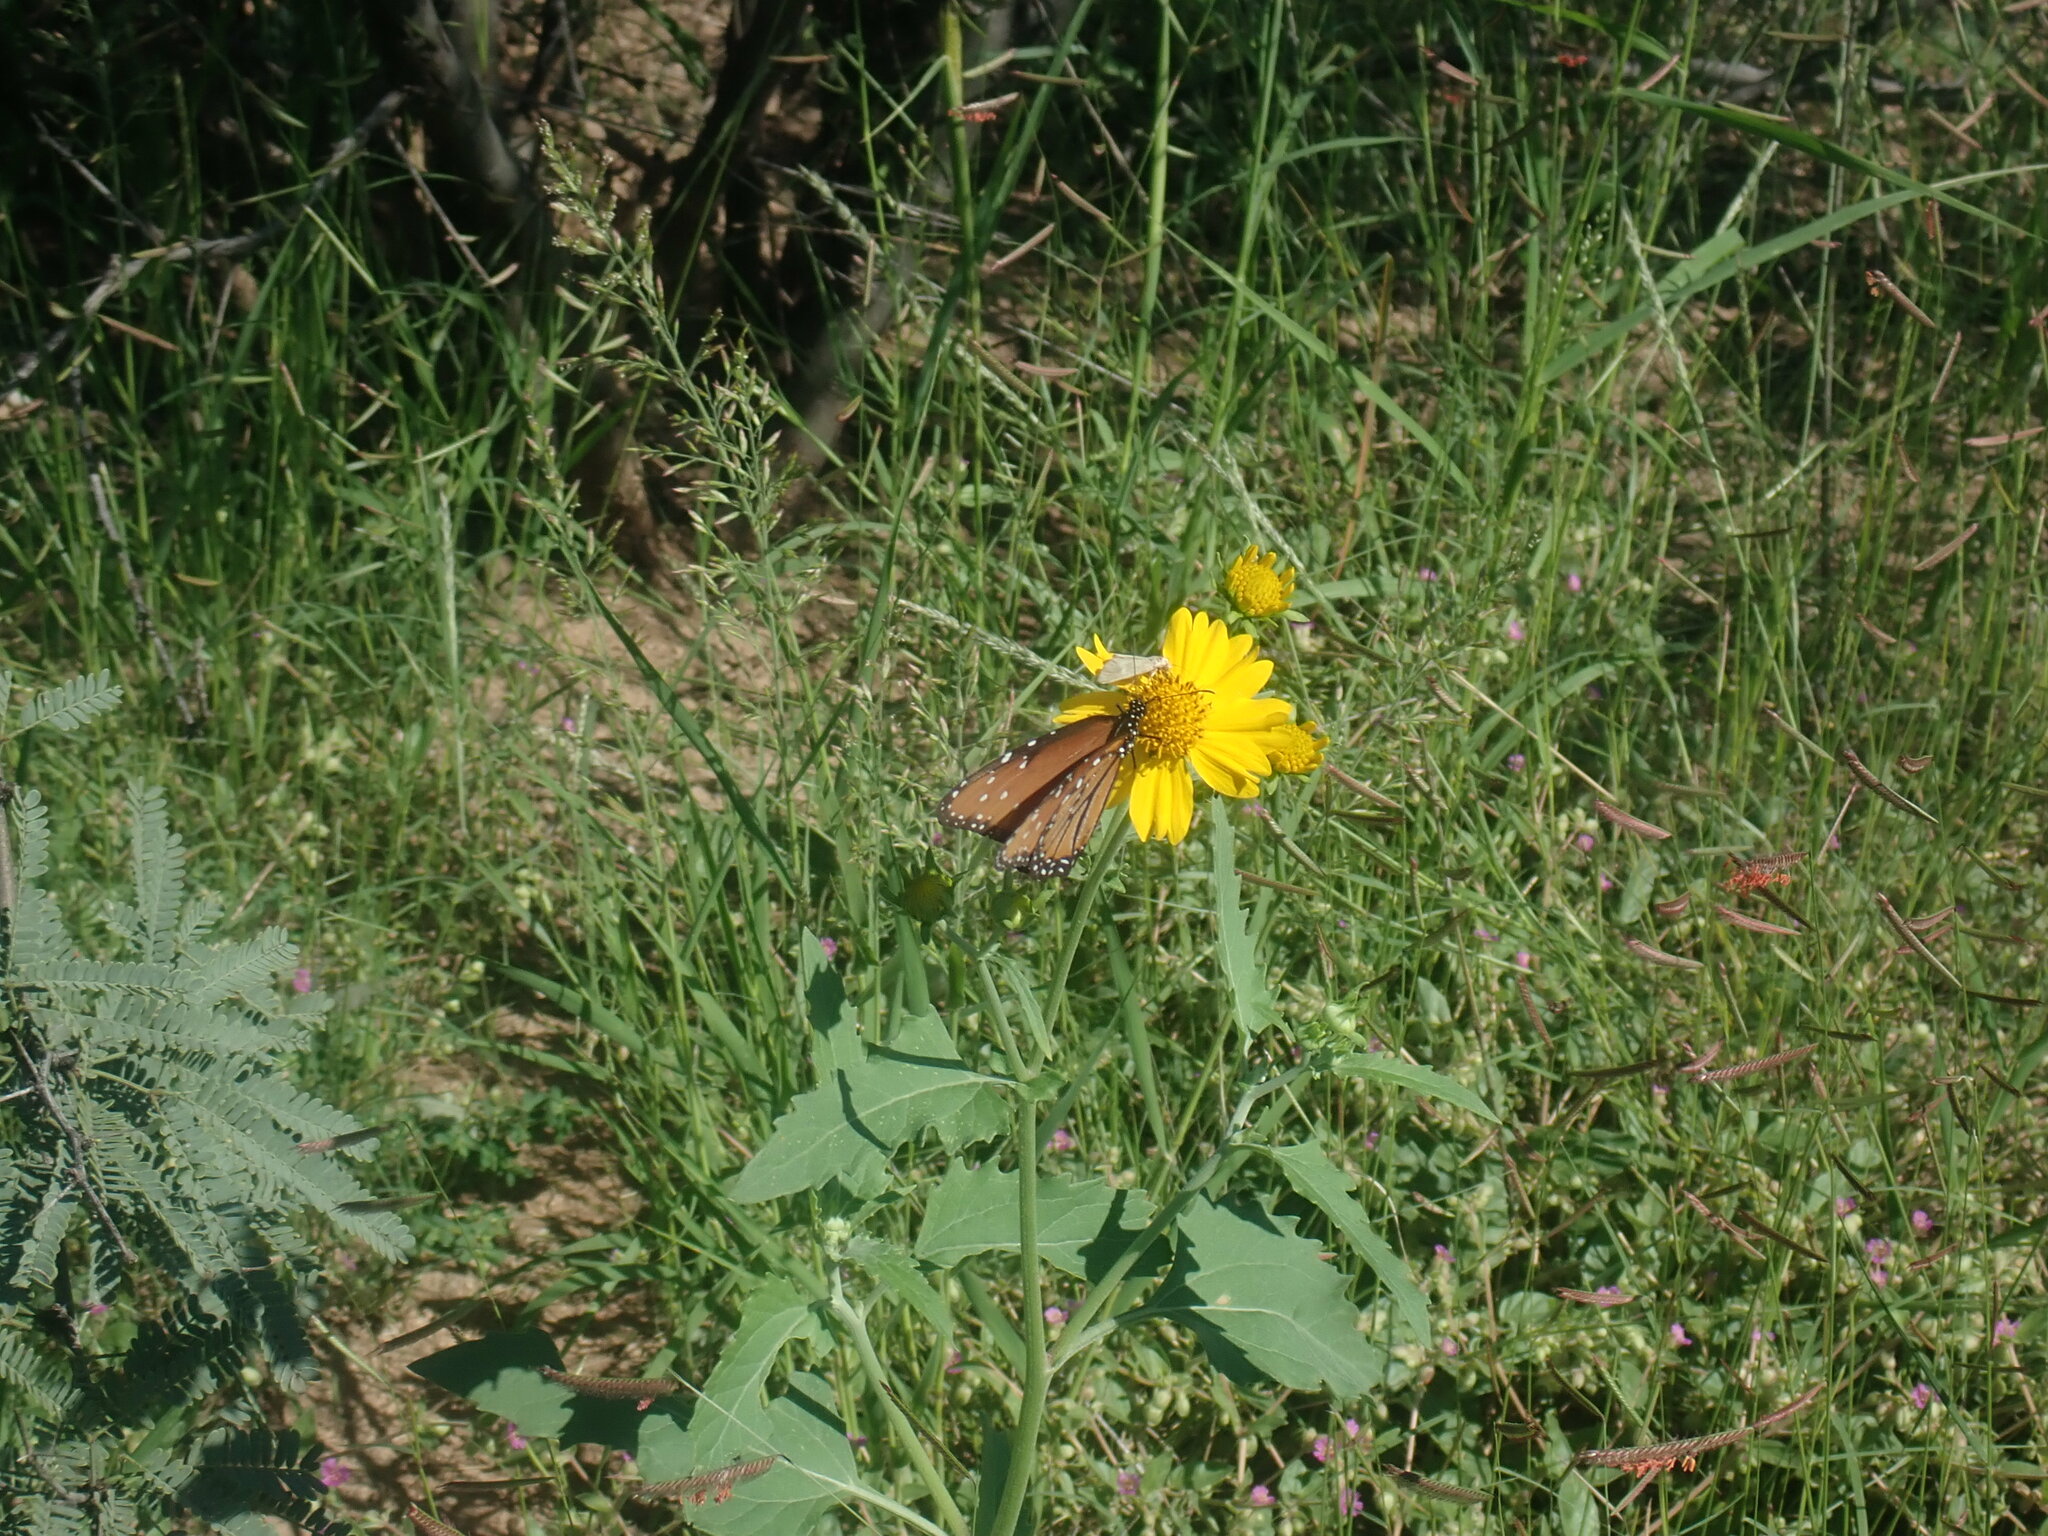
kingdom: Animalia
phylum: Arthropoda
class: Insecta
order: Lepidoptera
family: Nymphalidae
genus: Danaus
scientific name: Danaus gilippus
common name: Queen
